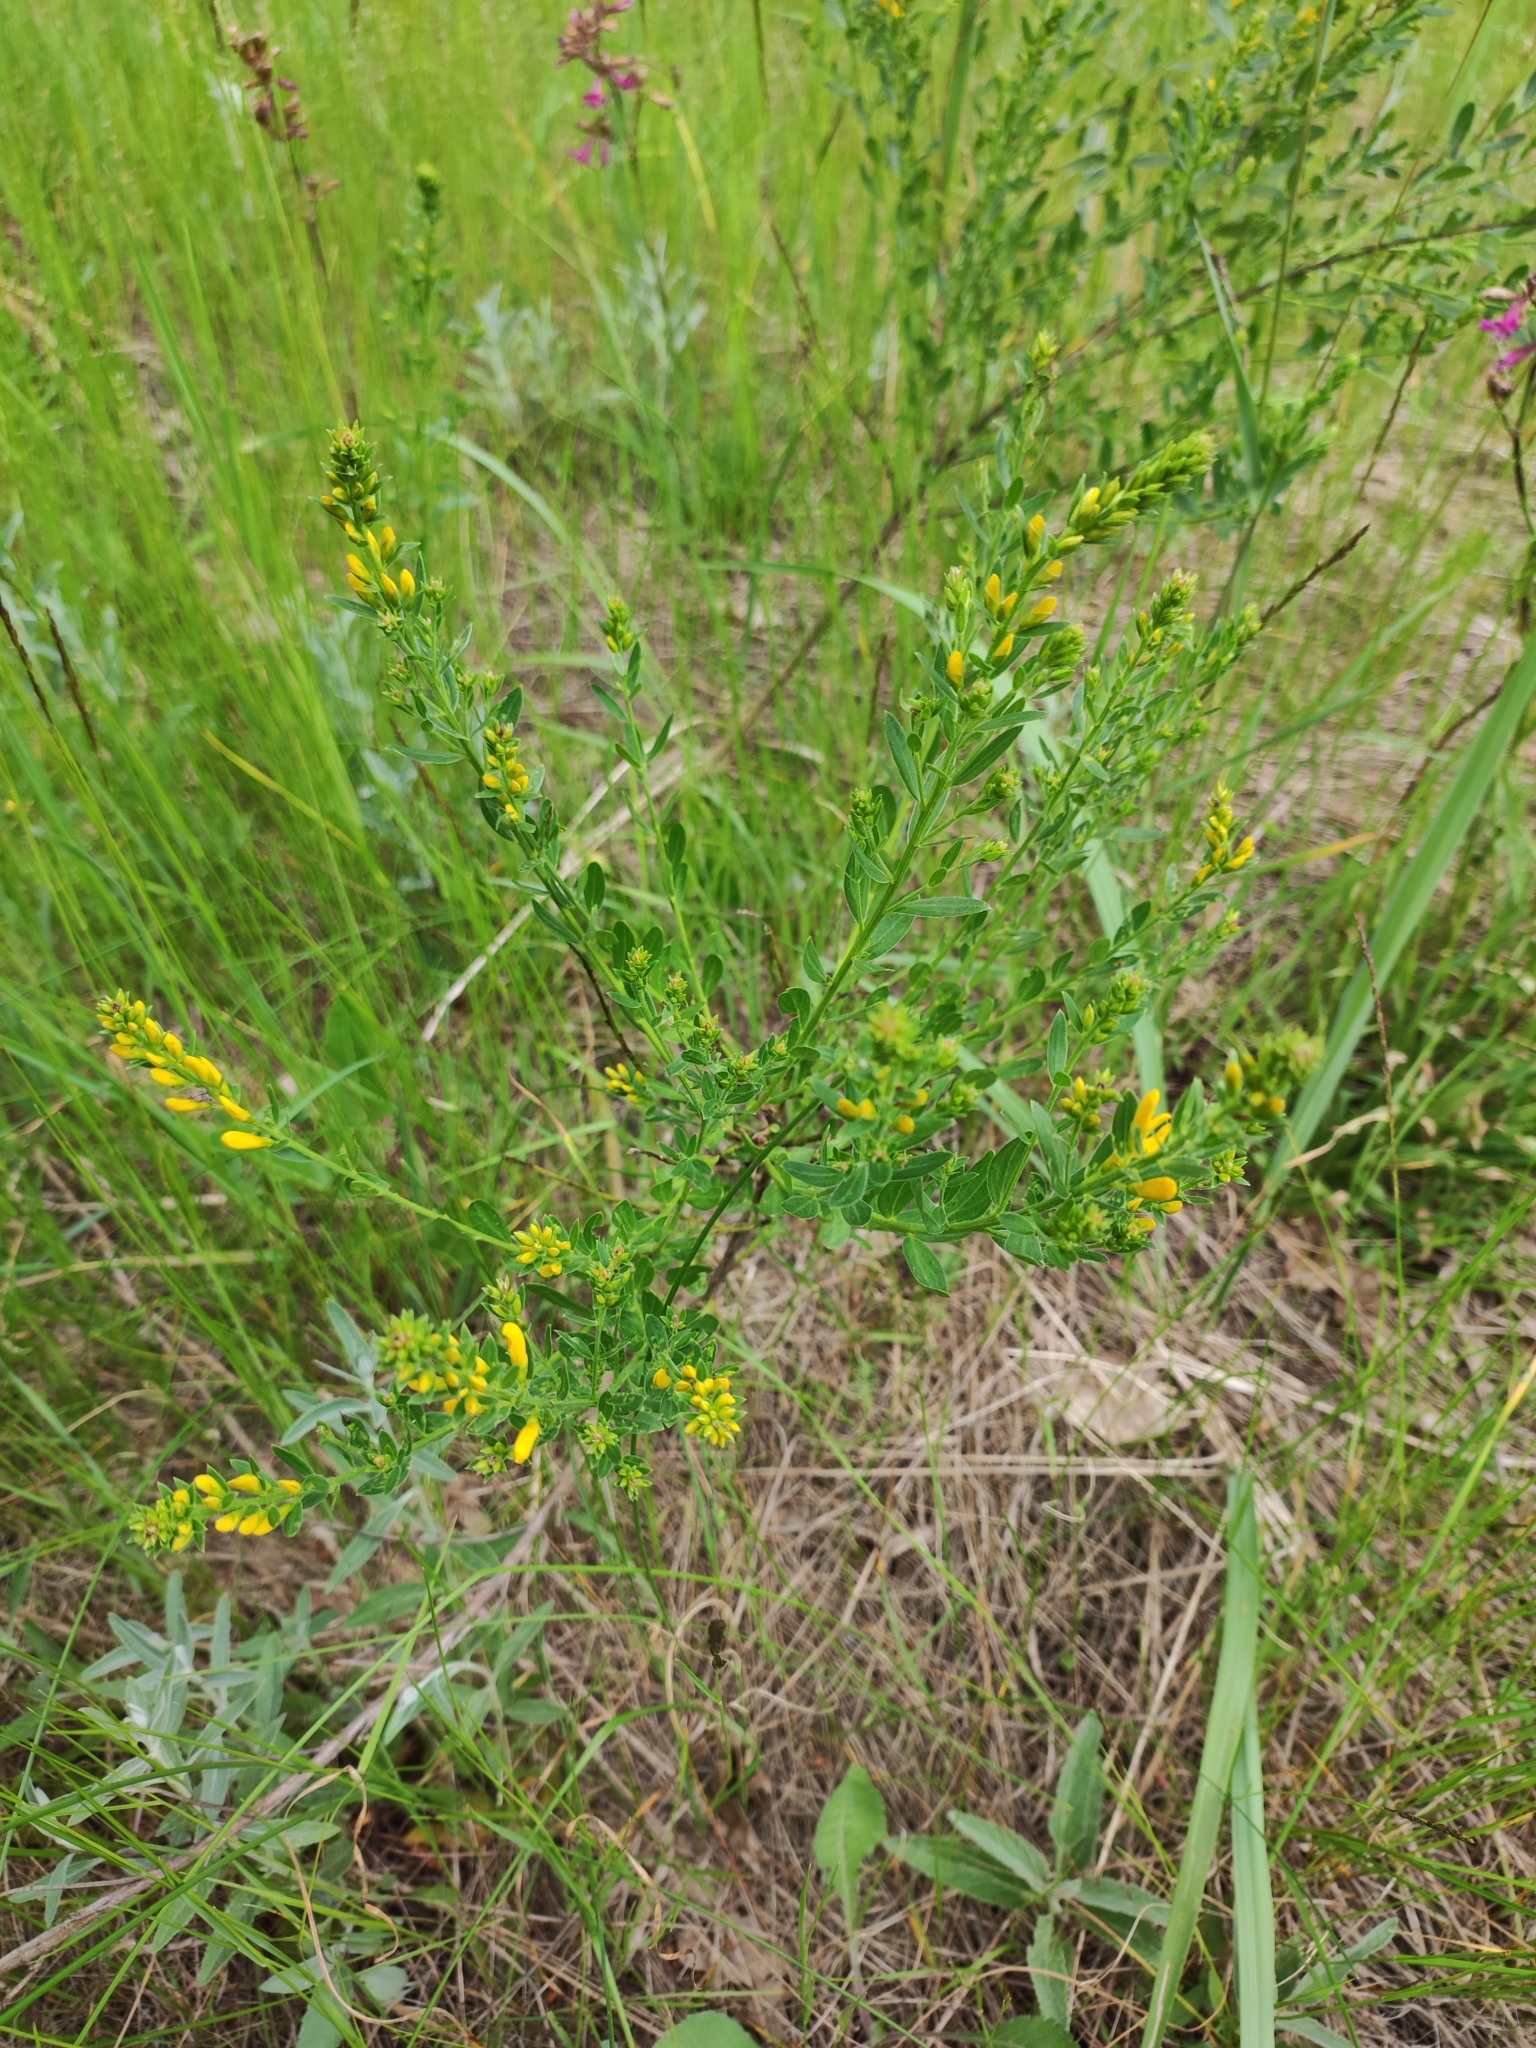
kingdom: Plantae
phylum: Tracheophyta
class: Magnoliopsida
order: Fabales
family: Fabaceae
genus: Genista
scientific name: Genista tinctoria
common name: Dyer's greenweed
